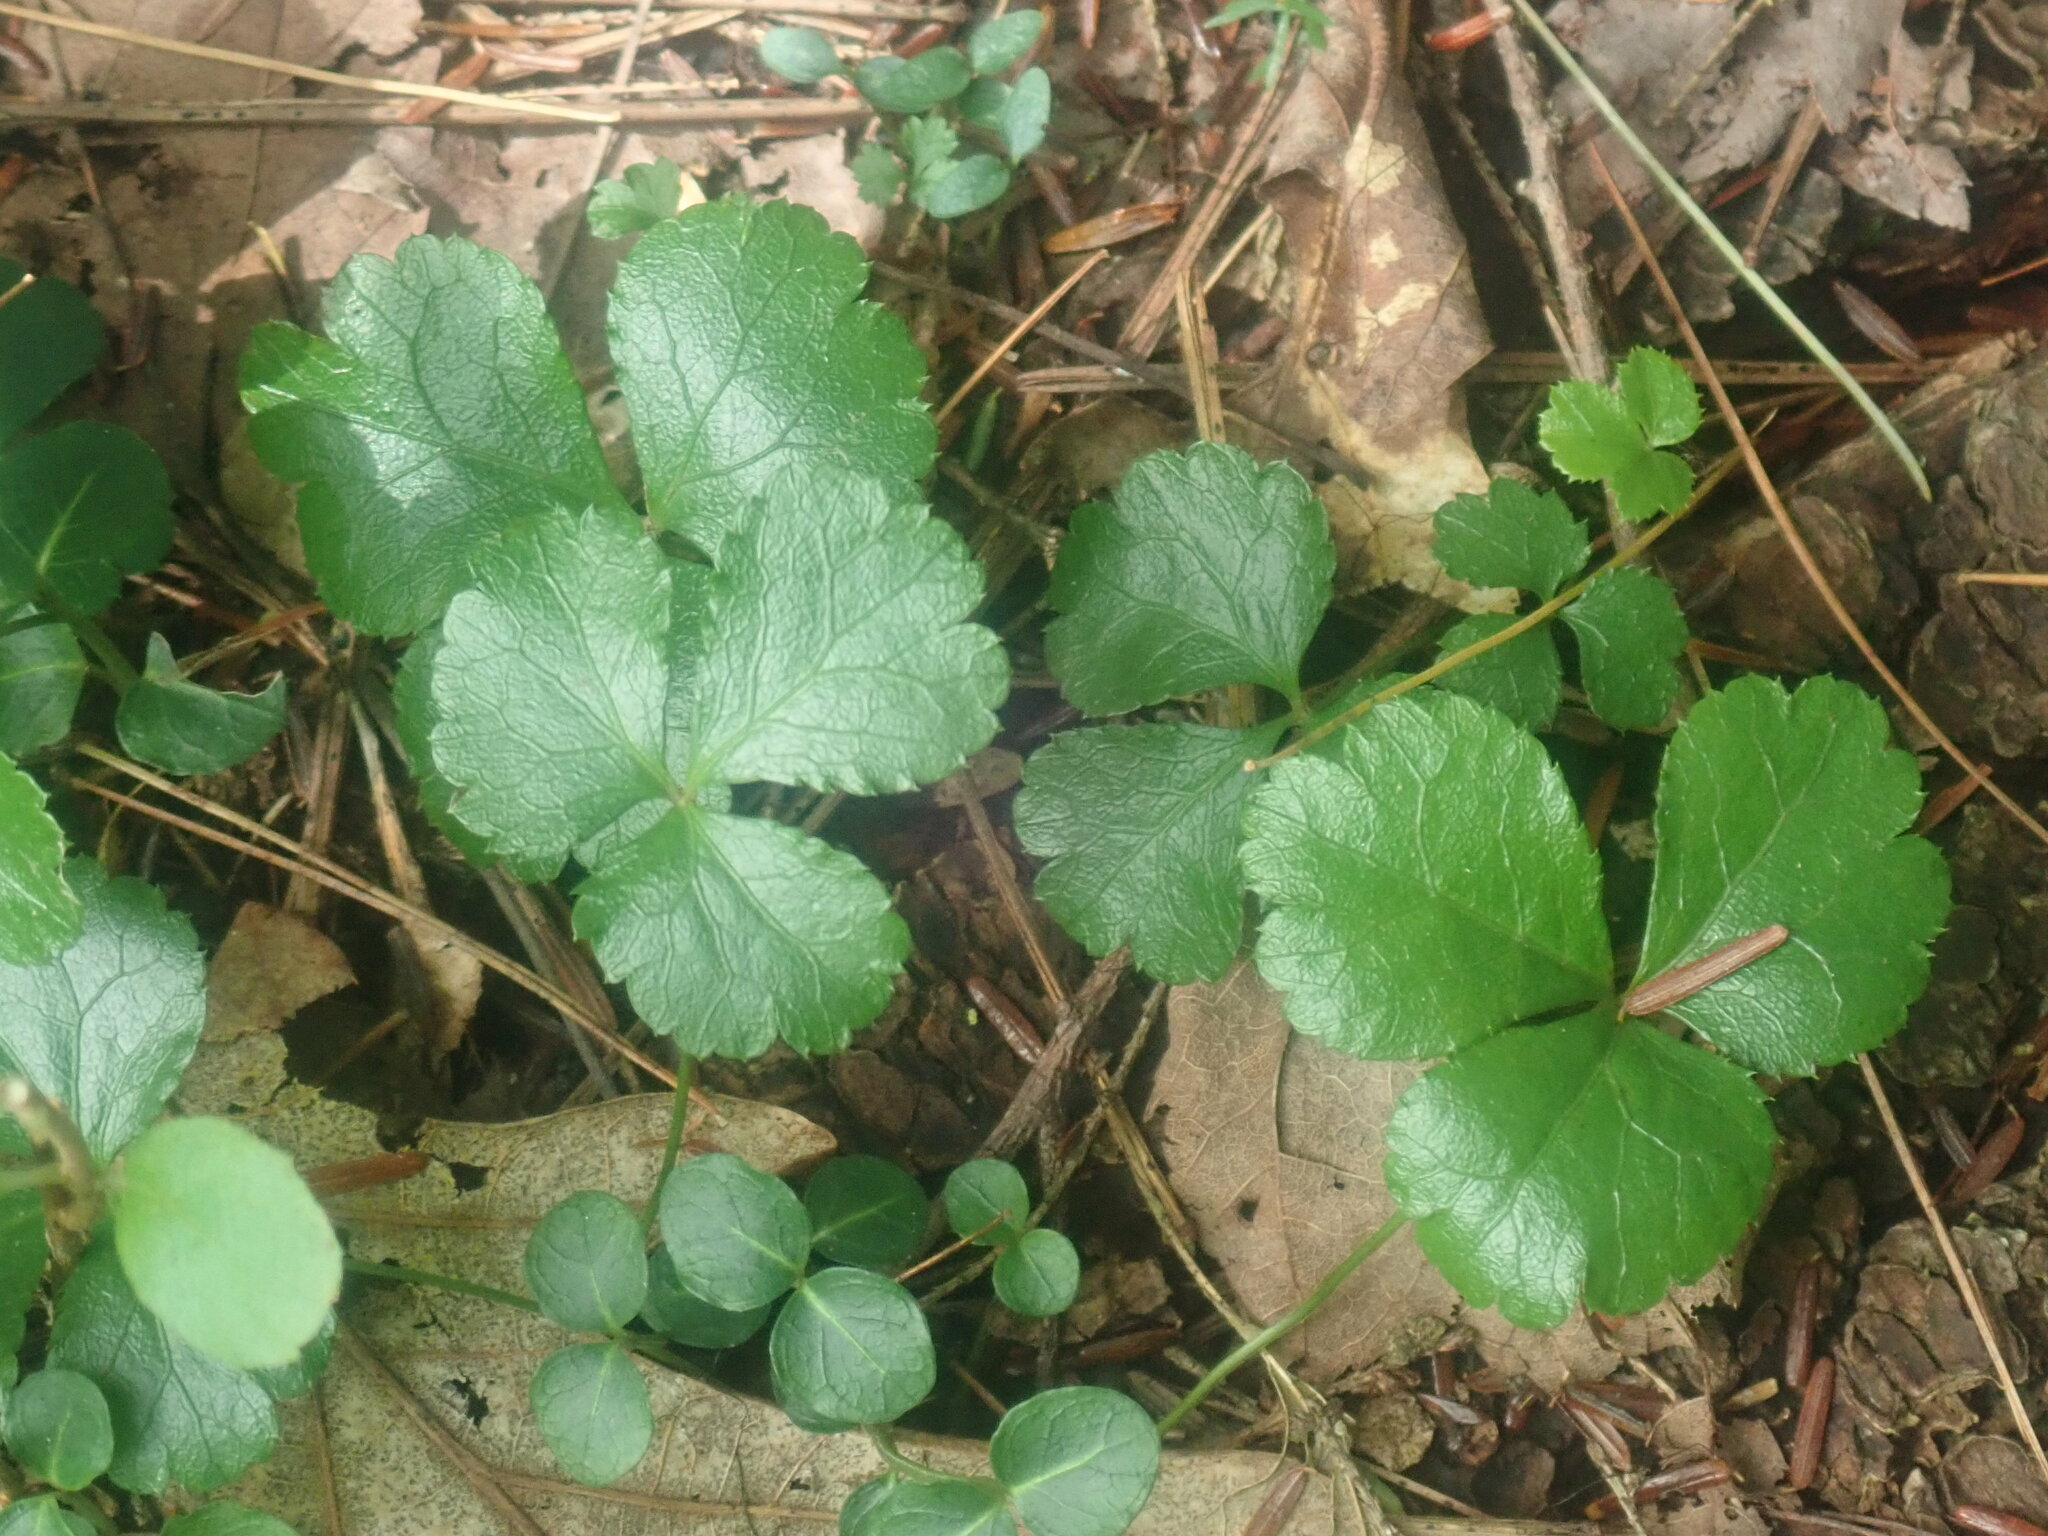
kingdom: Plantae
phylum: Tracheophyta
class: Magnoliopsida
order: Ranunculales
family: Ranunculaceae
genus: Coptis
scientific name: Coptis trifolia
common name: Canker-root
